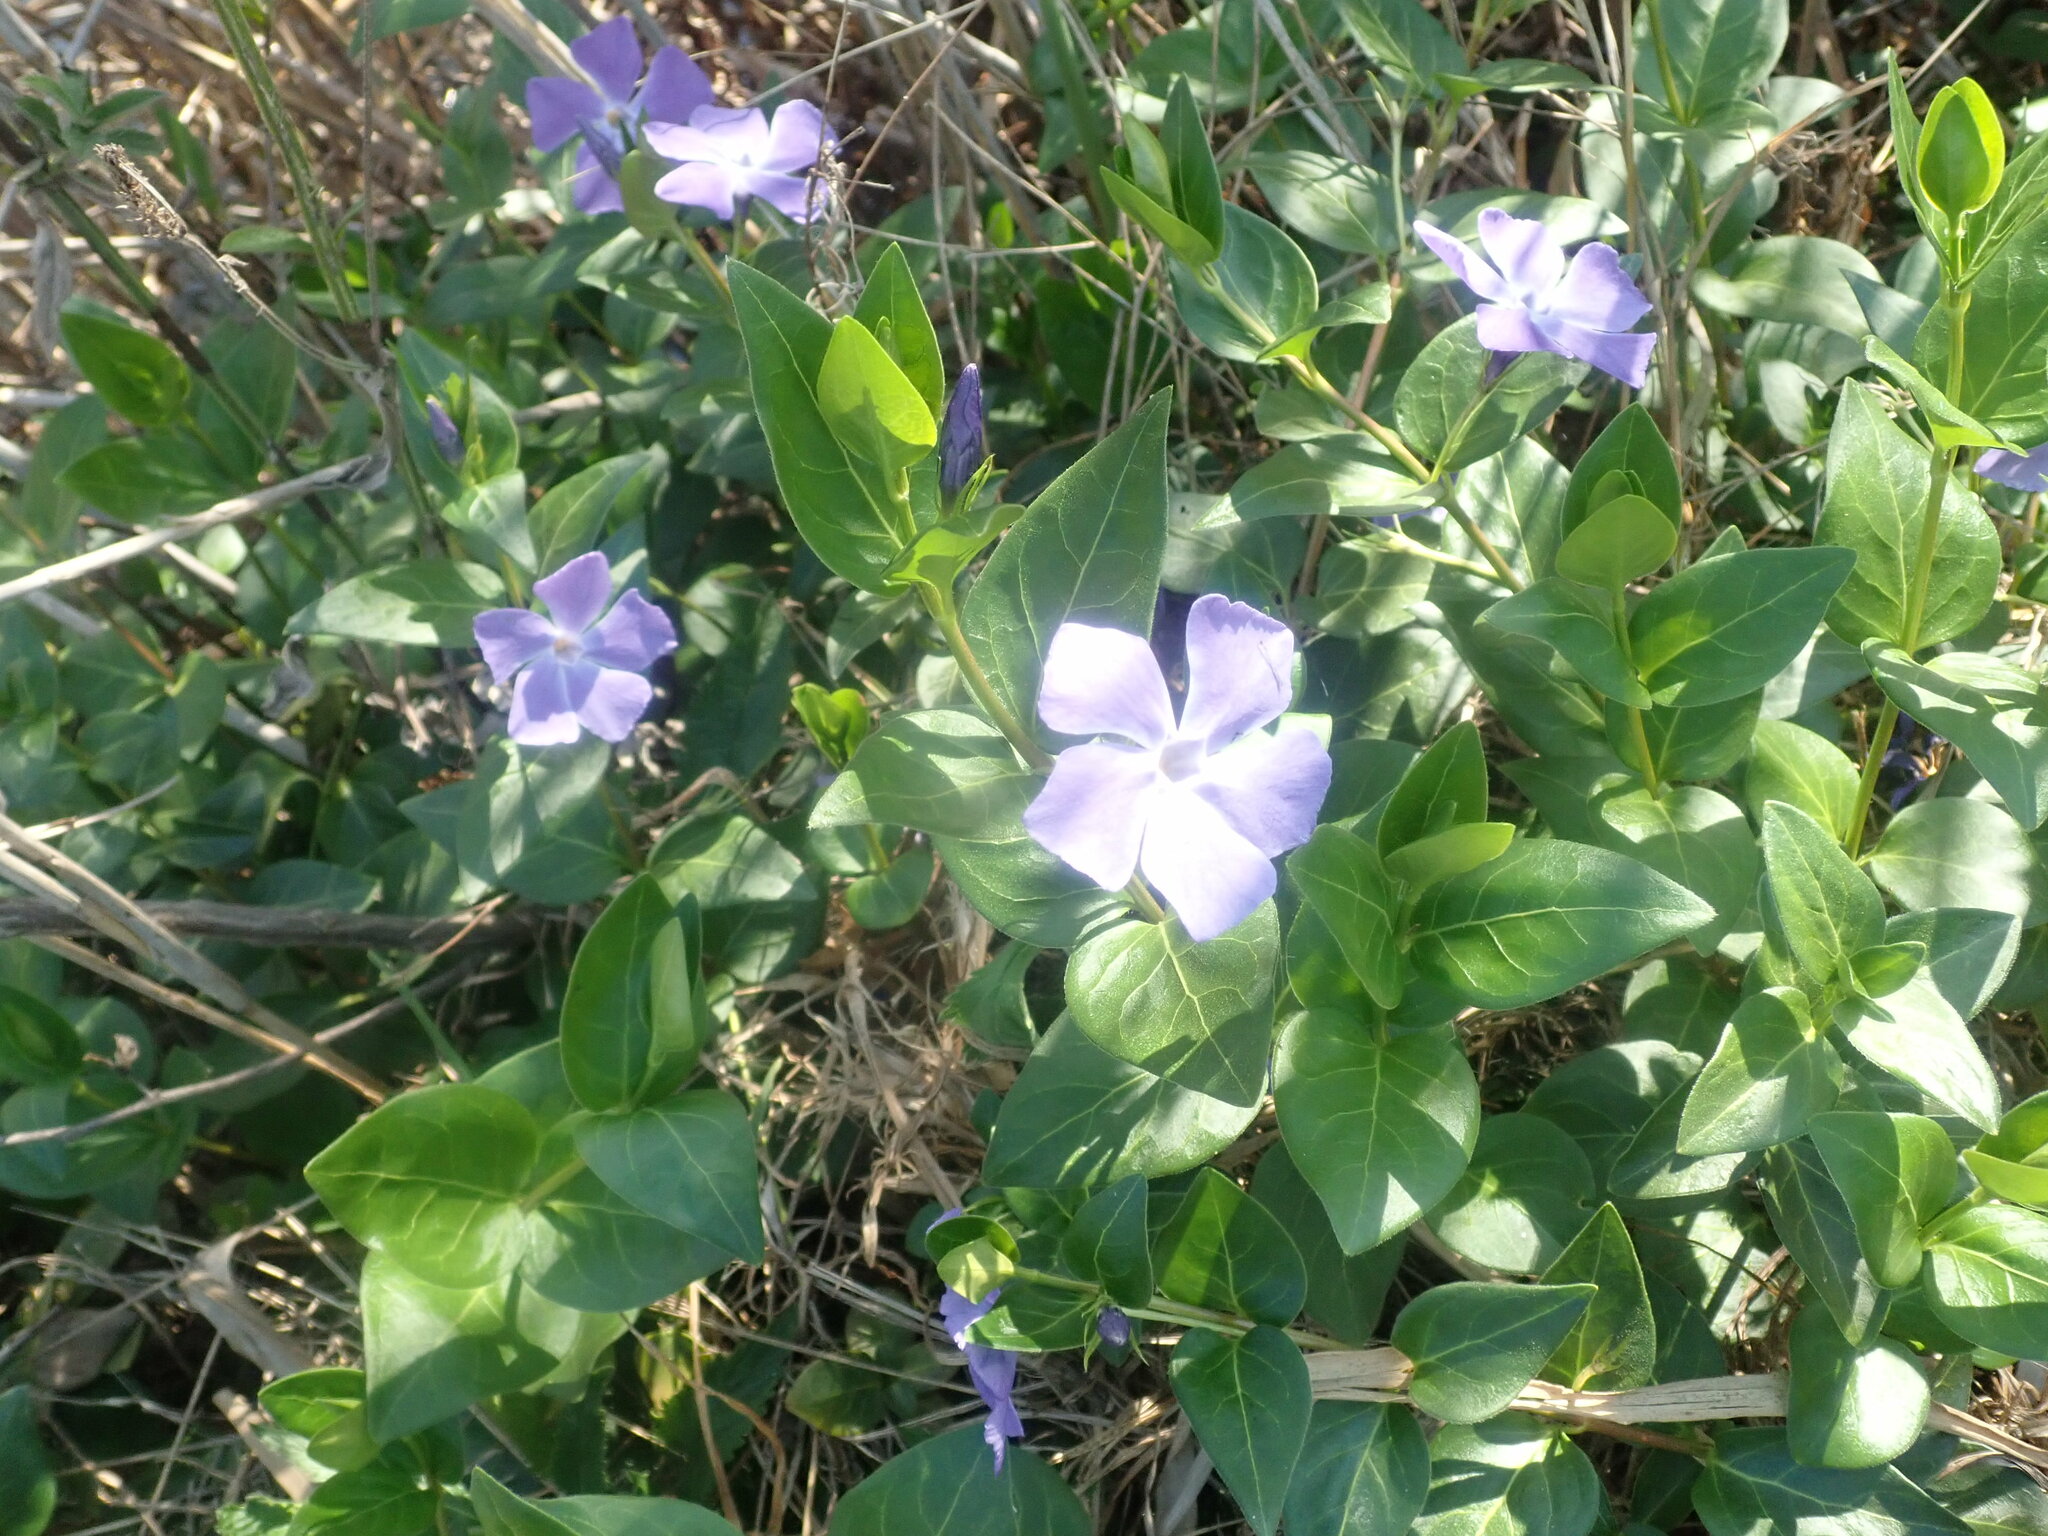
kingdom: Plantae
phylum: Tracheophyta
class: Magnoliopsida
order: Gentianales
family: Apocynaceae
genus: Vinca
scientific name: Vinca major
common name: Greater periwinkle
